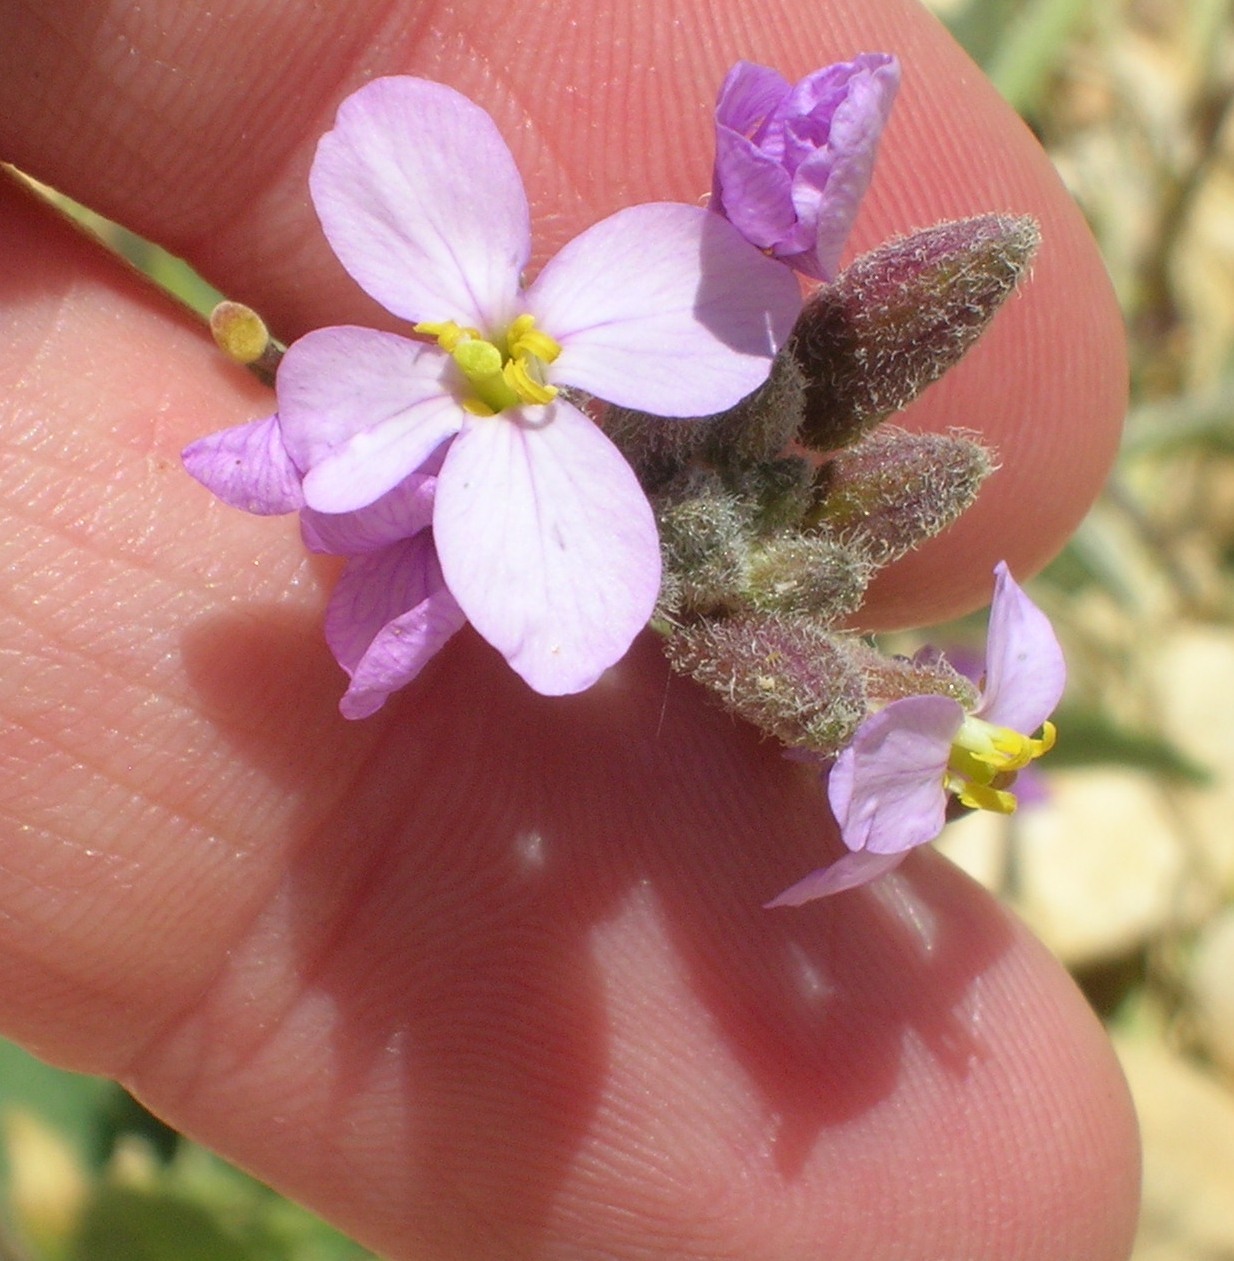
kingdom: Plantae
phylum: Tracheophyta
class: Magnoliopsida
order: Brassicales
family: Brassicaceae
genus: Diplotaxis
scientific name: Diplotaxis acris
